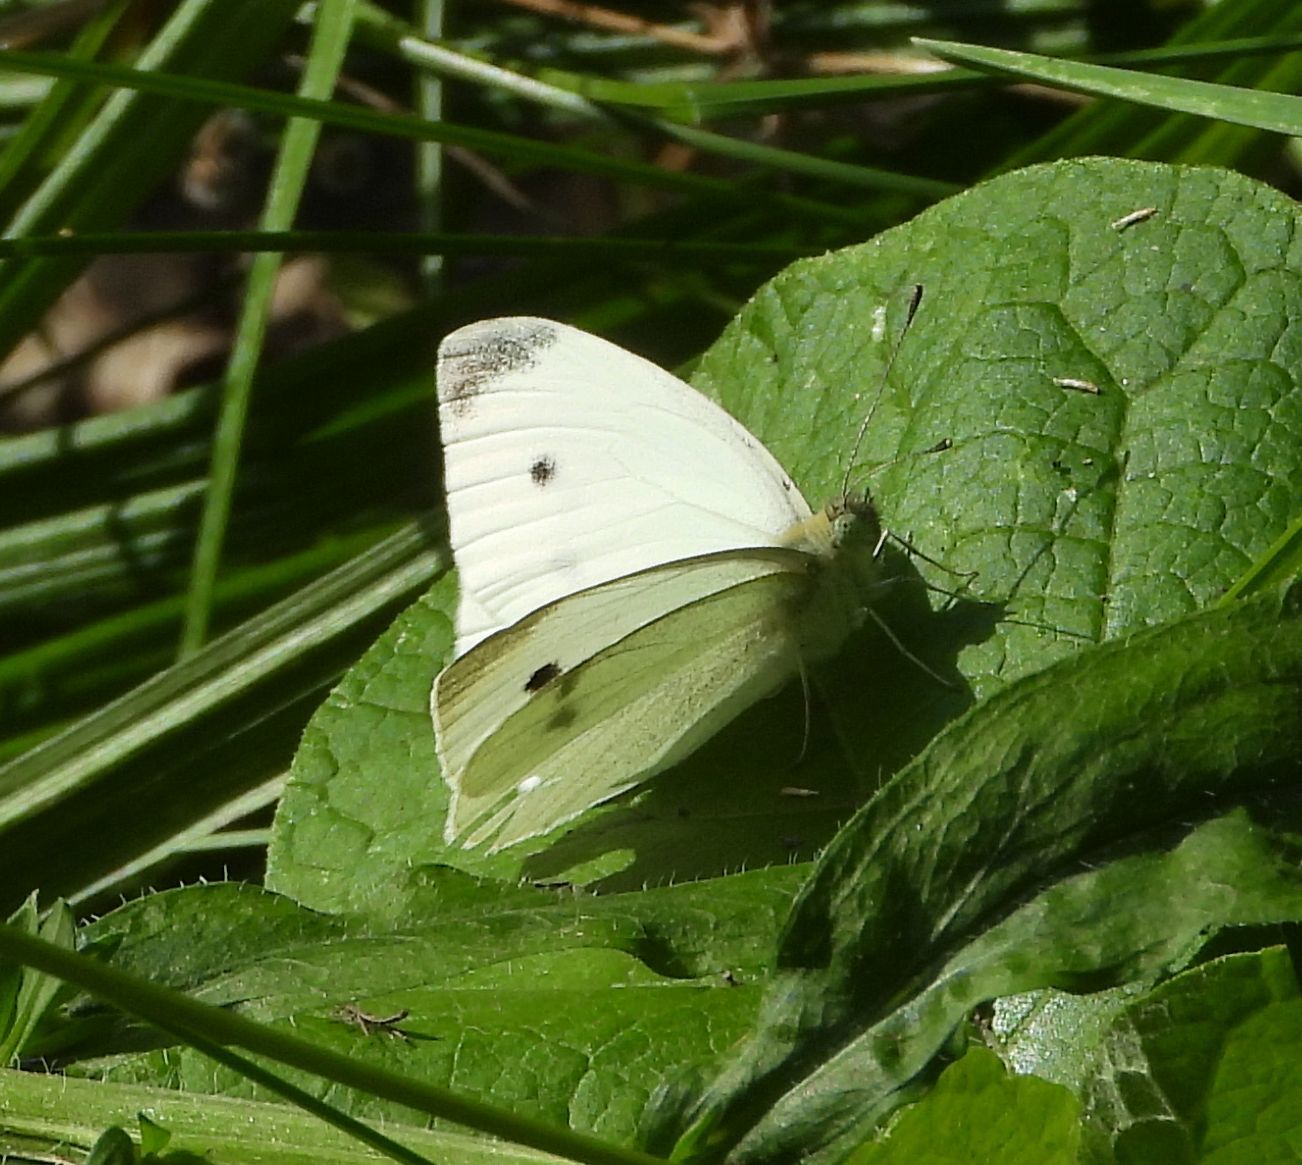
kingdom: Animalia
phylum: Arthropoda
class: Insecta
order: Lepidoptera
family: Pieridae
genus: Pieris
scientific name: Pieris rapae
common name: Small white
